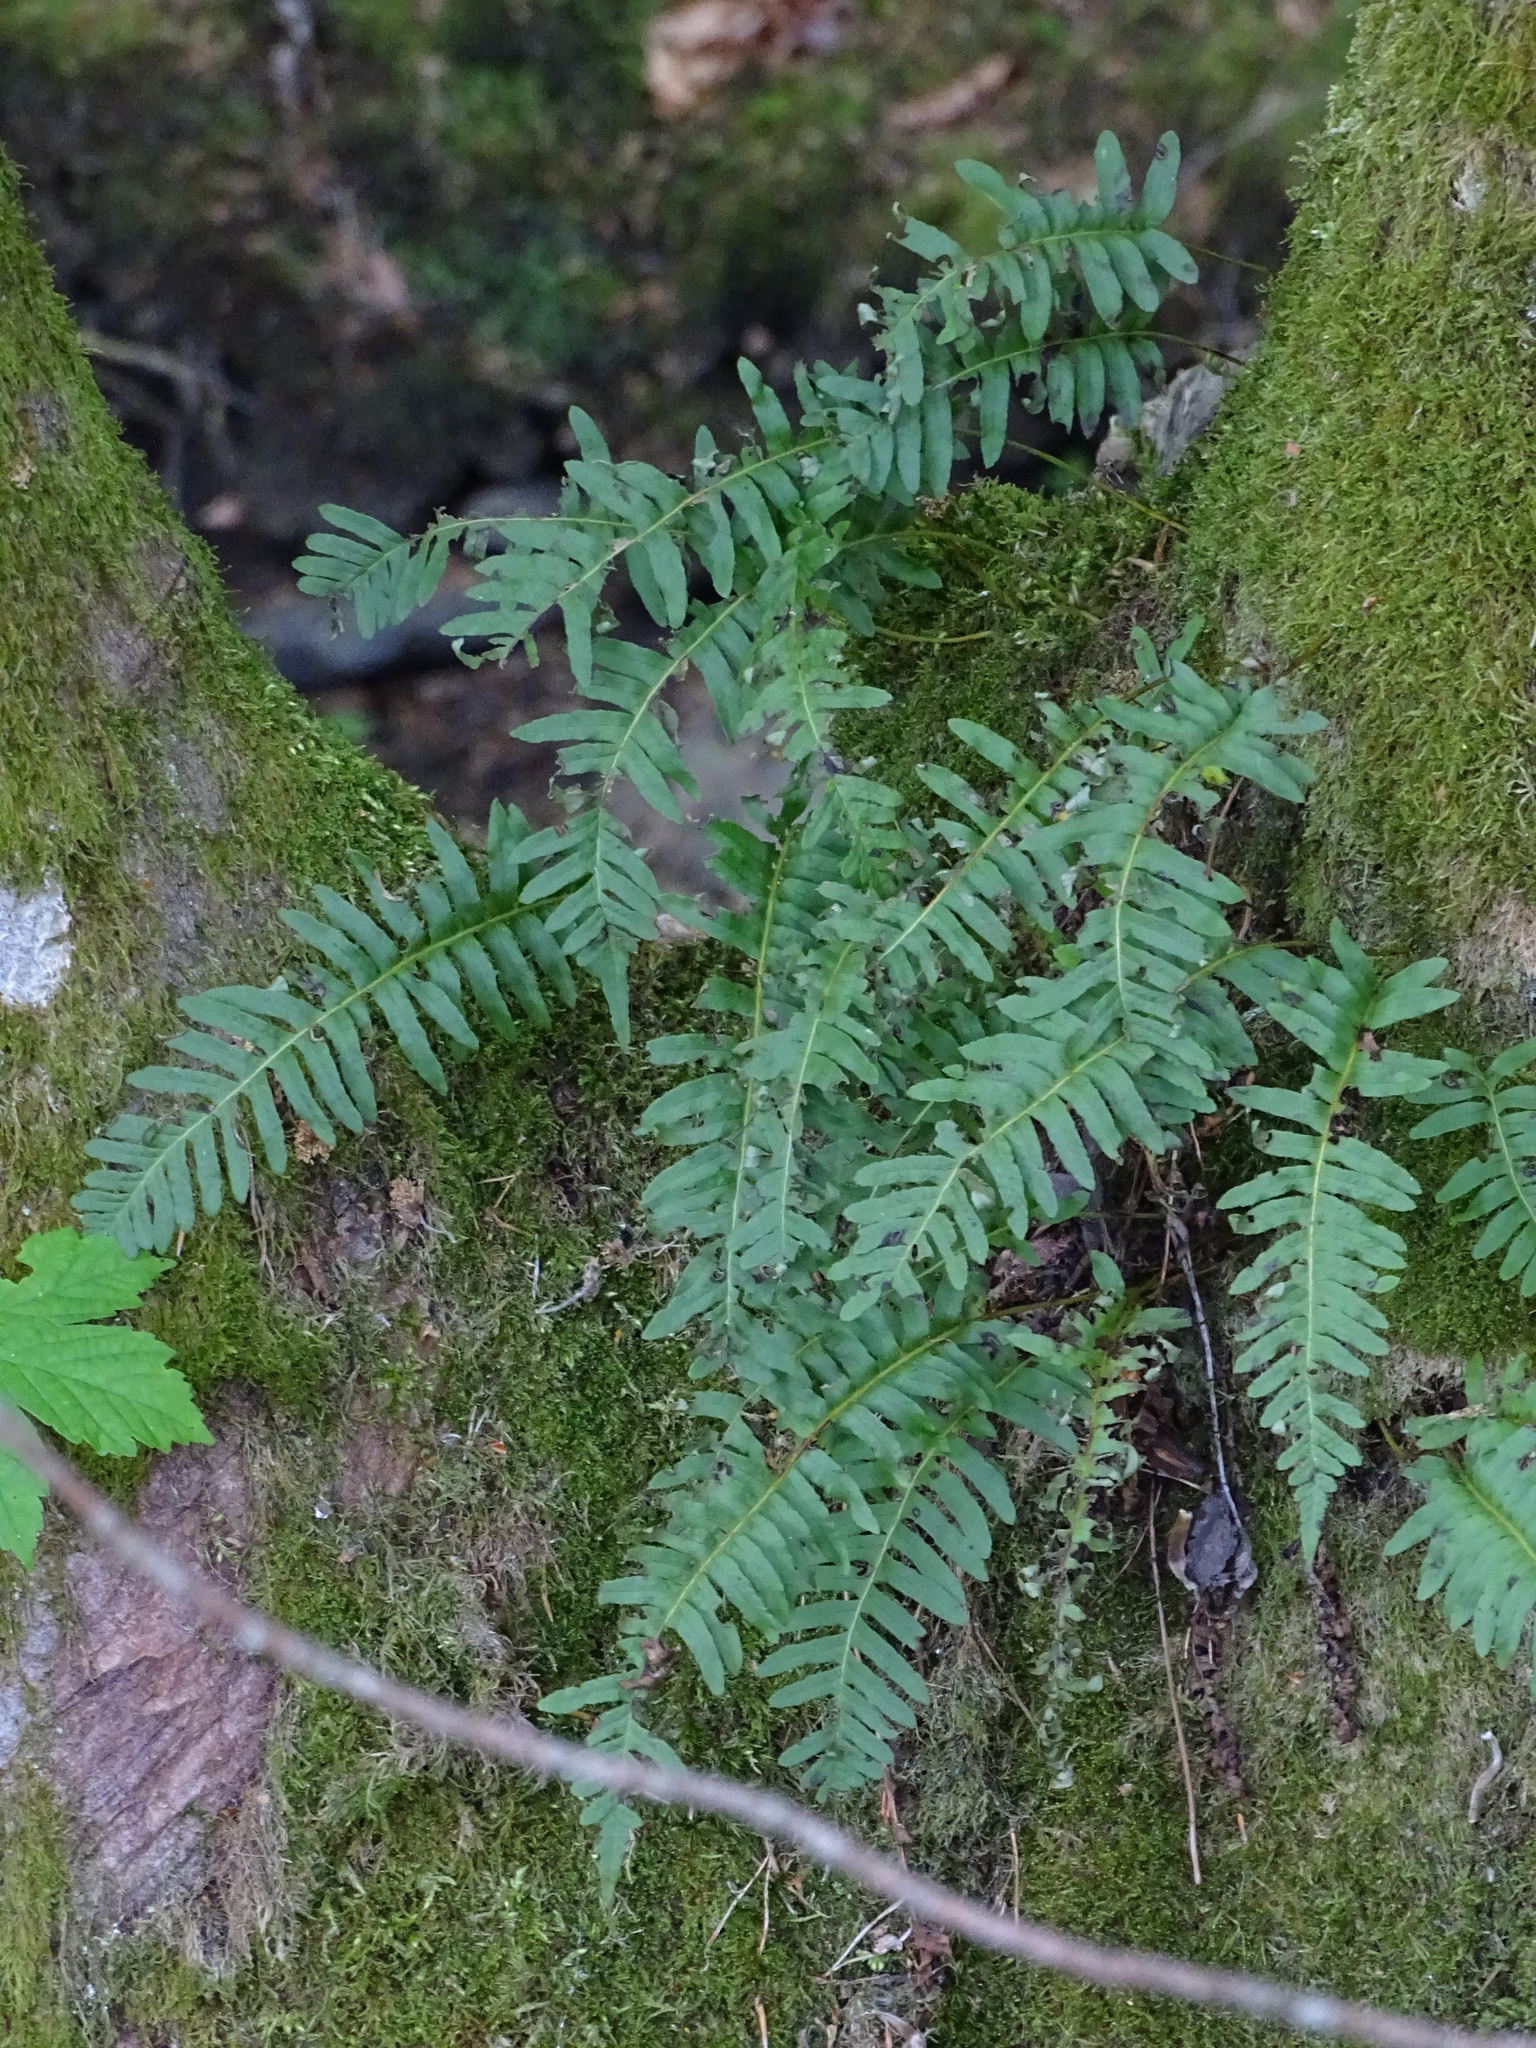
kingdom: Plantae
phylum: Tracheophyta
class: Polypodiopsida
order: Polypodiales
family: Polypodiaceae
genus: Polypodium
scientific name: Polypodium vulgare
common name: Common polypody
